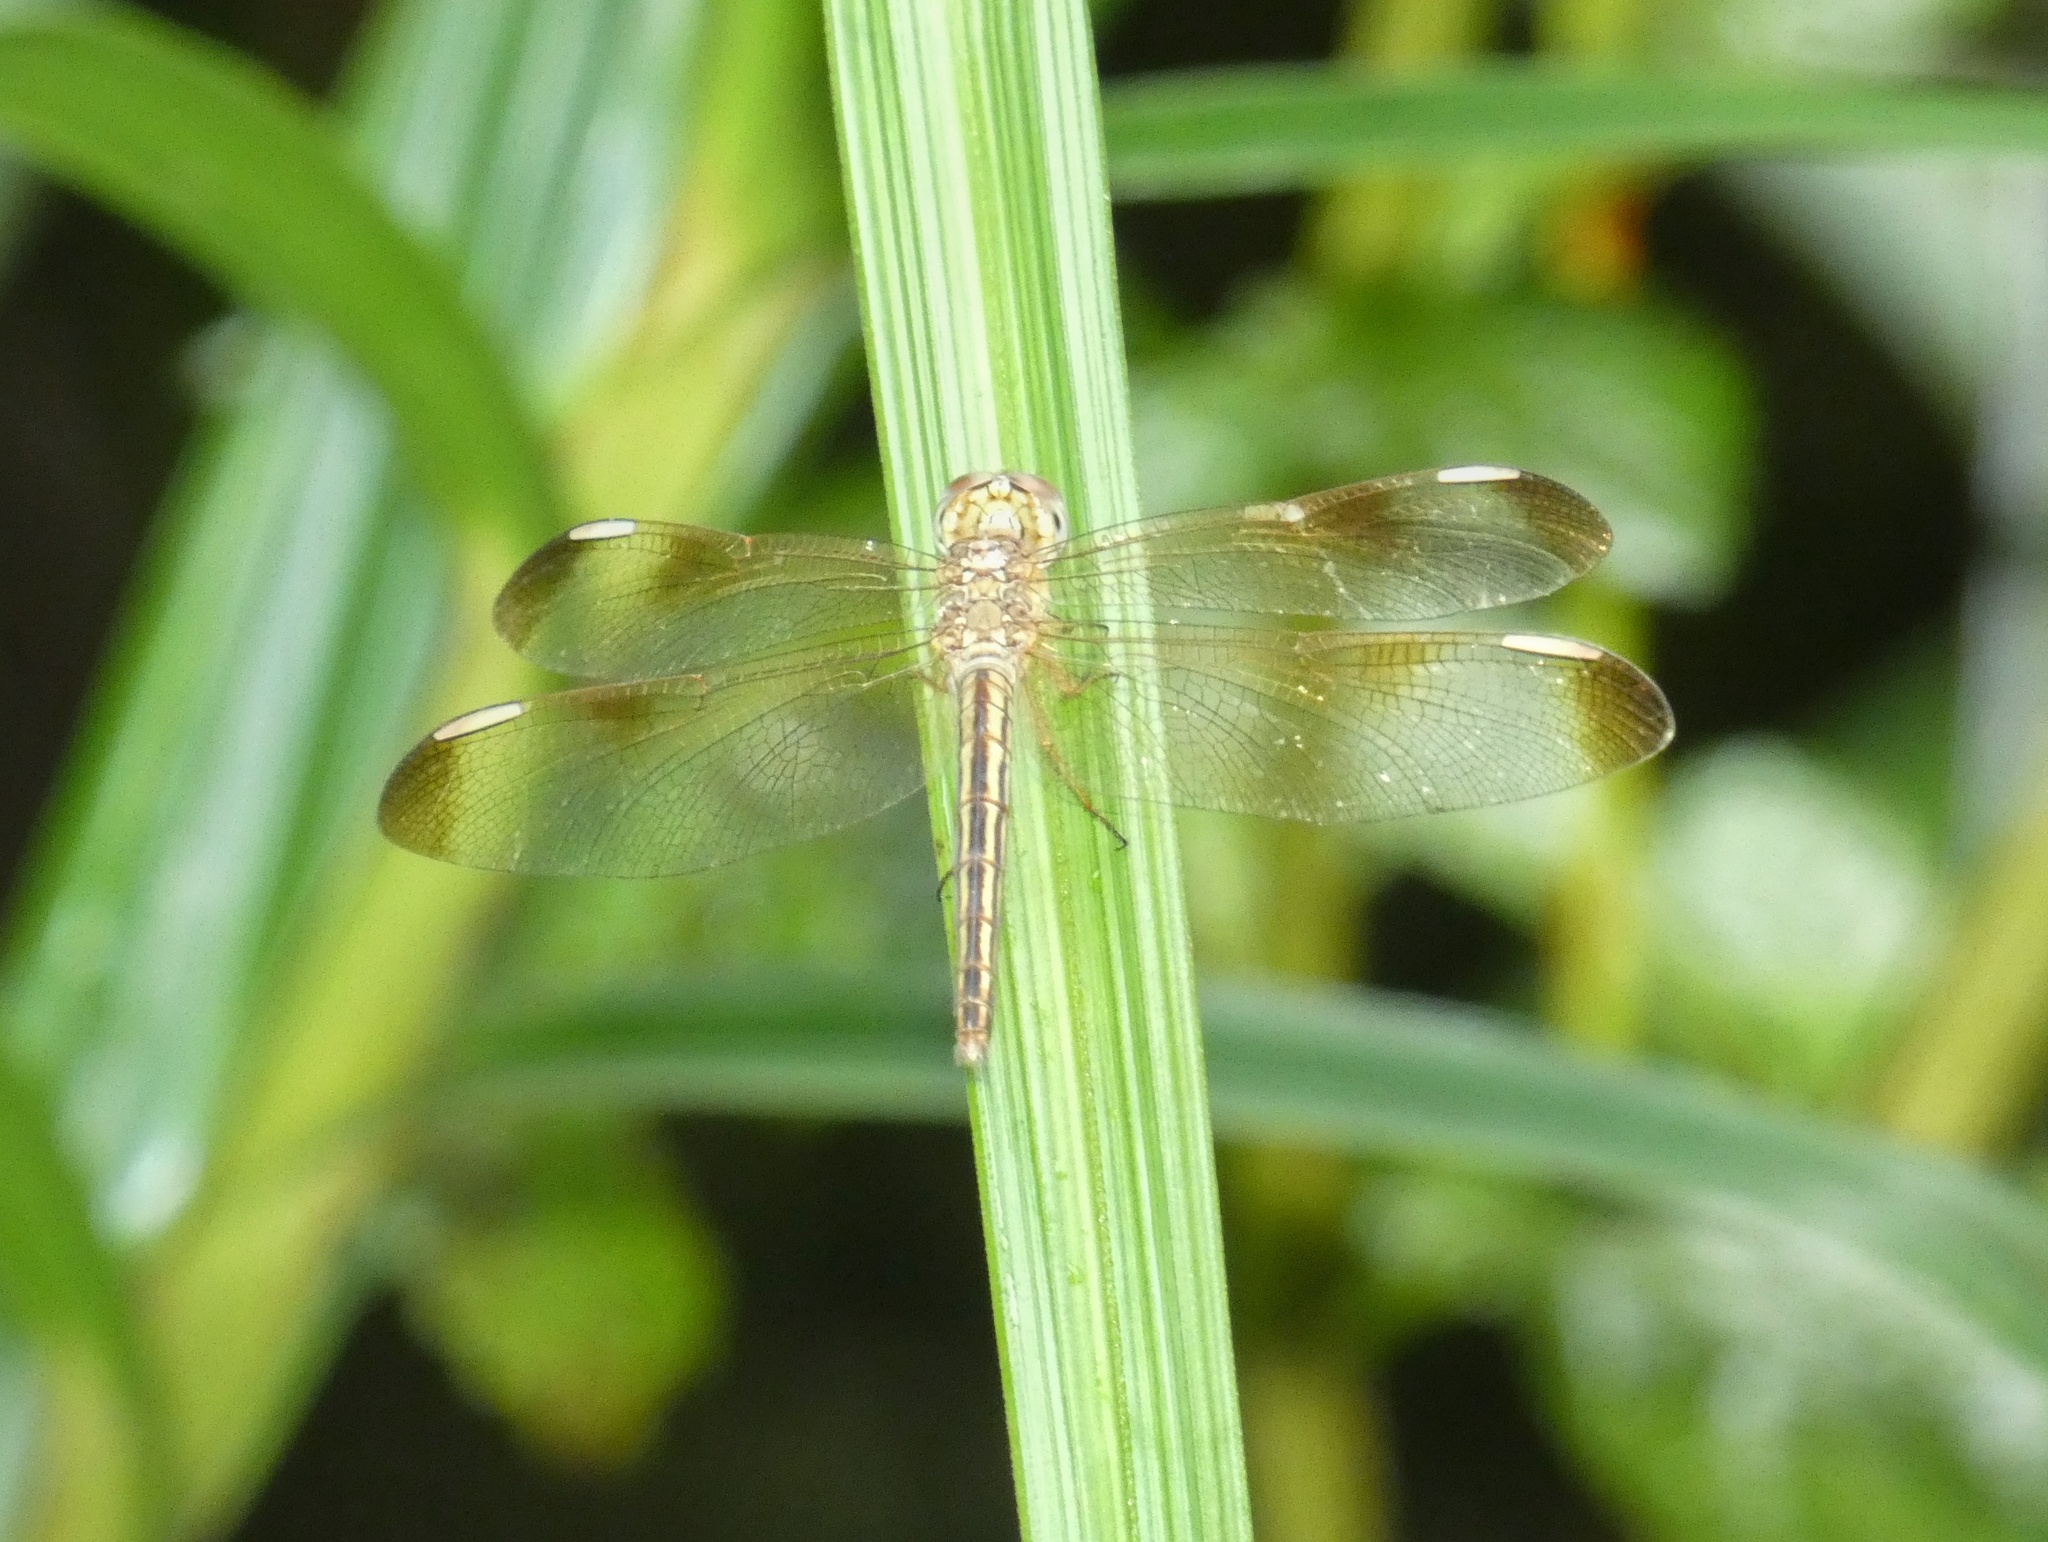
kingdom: Animalia
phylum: Arthropoda
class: Insecta
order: Odonata
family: Libellulidae
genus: Neurothemis
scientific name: Neurothemis stigmatizans
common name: Painted grasshawk
